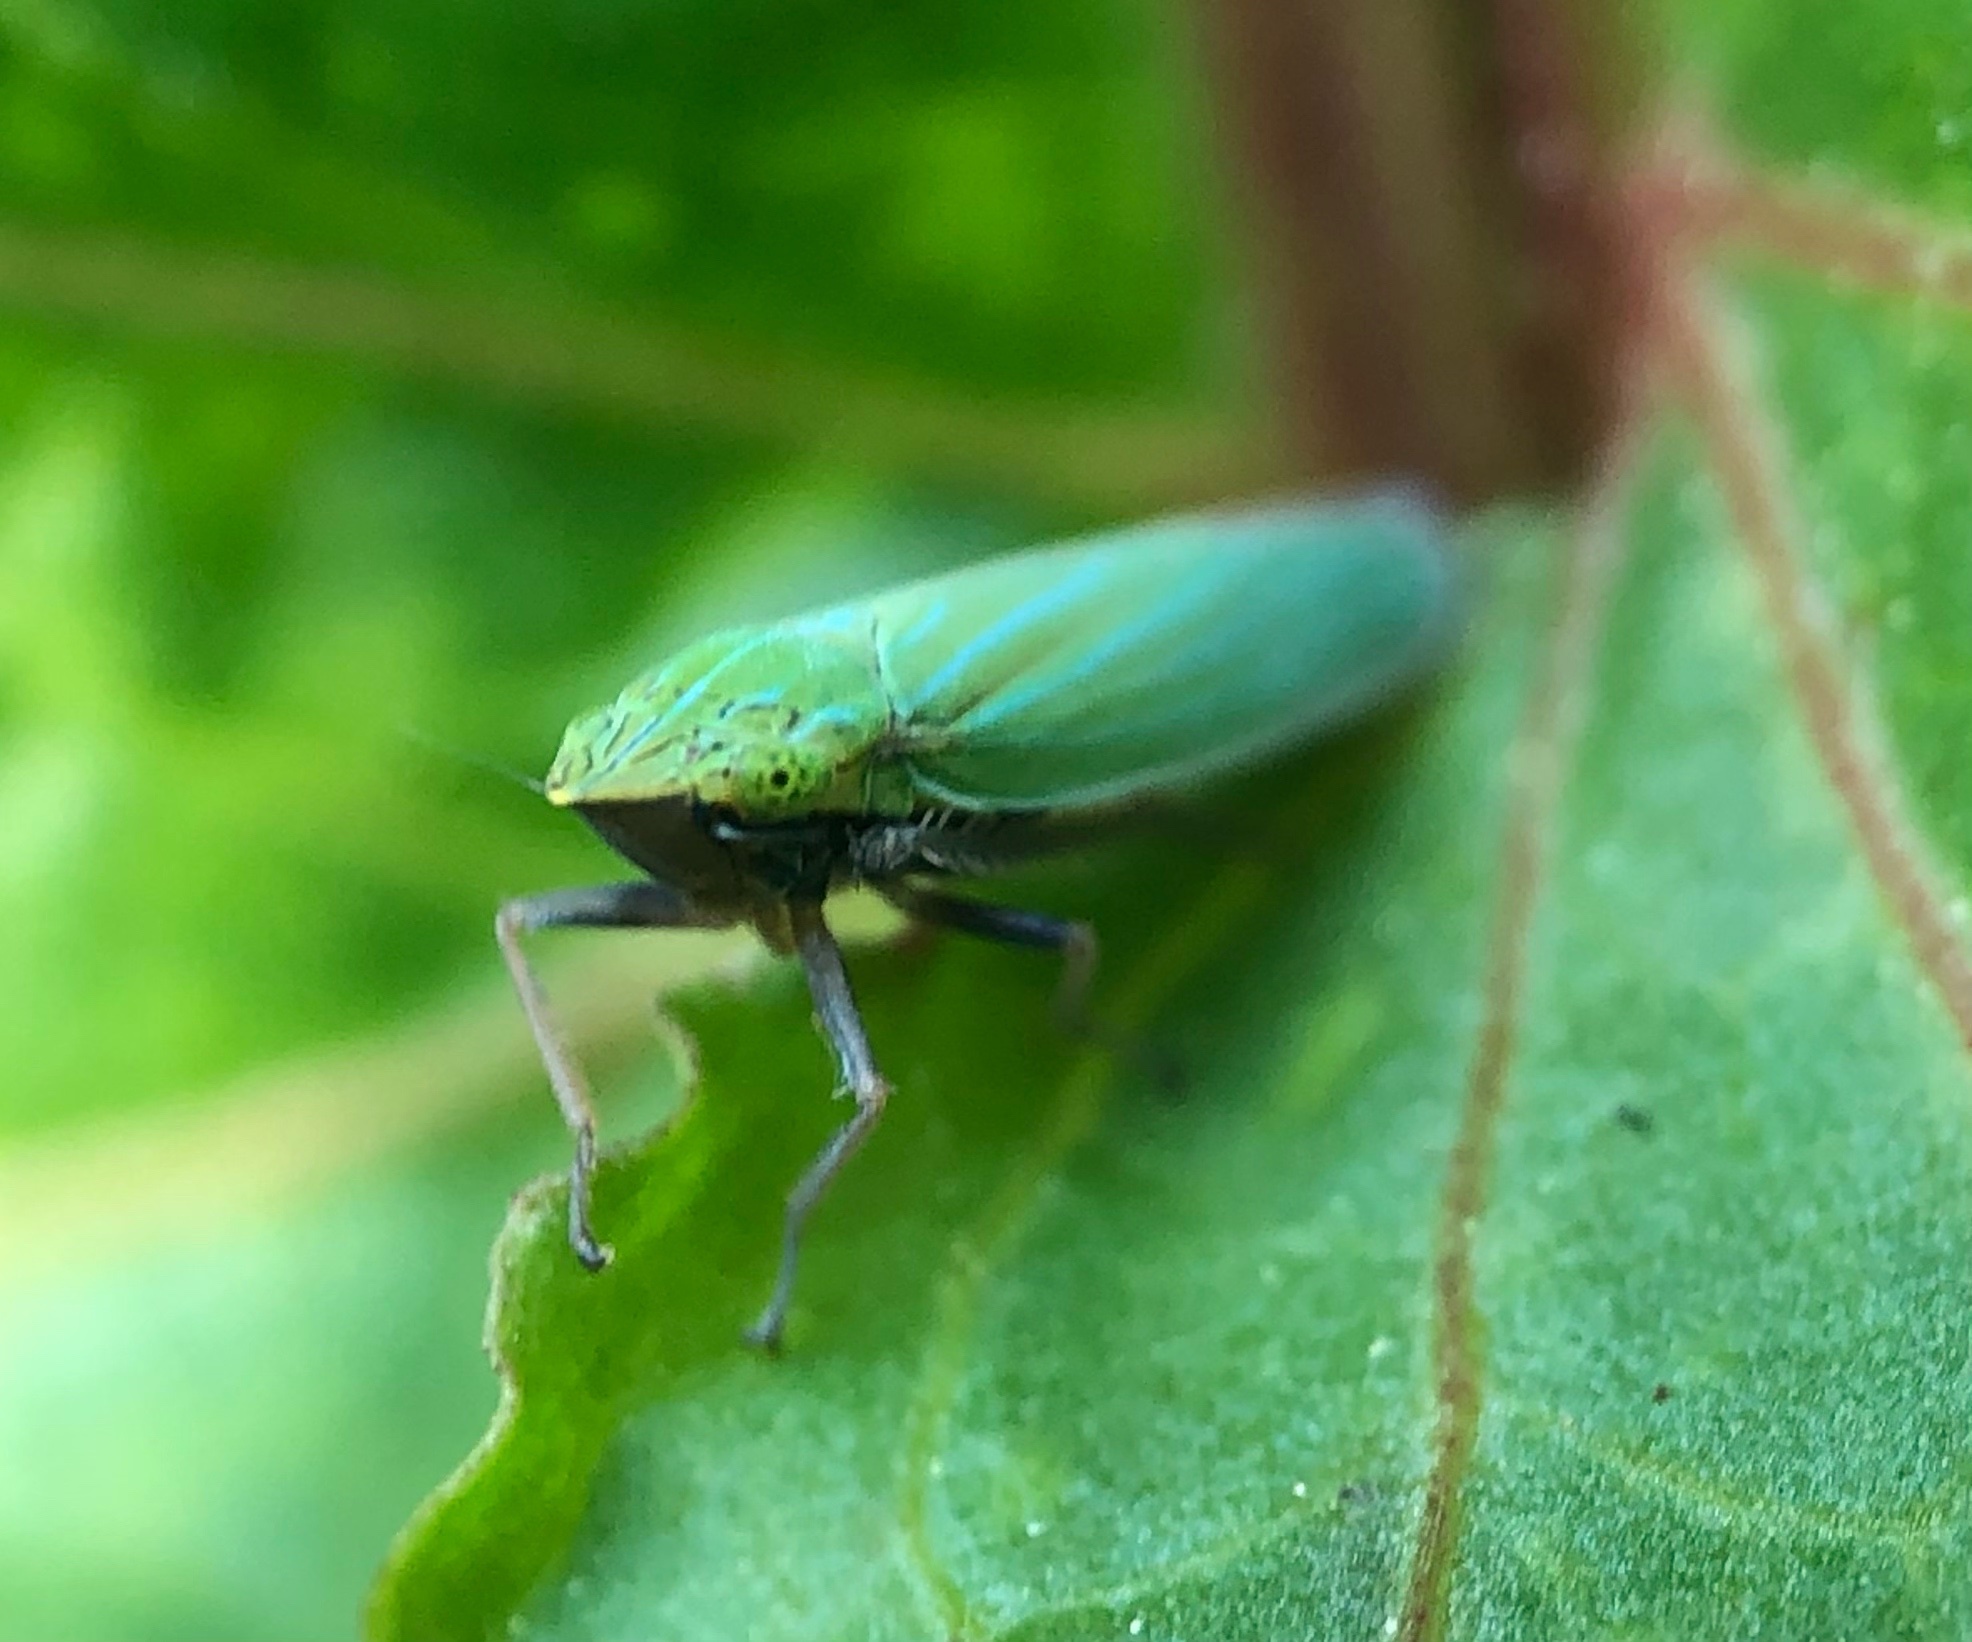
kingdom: Animalia
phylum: Arthropoda
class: Insecta
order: Hemiptera
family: Cicadellidae
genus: Draeculacephala
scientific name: Draeculacephala robinsoni
